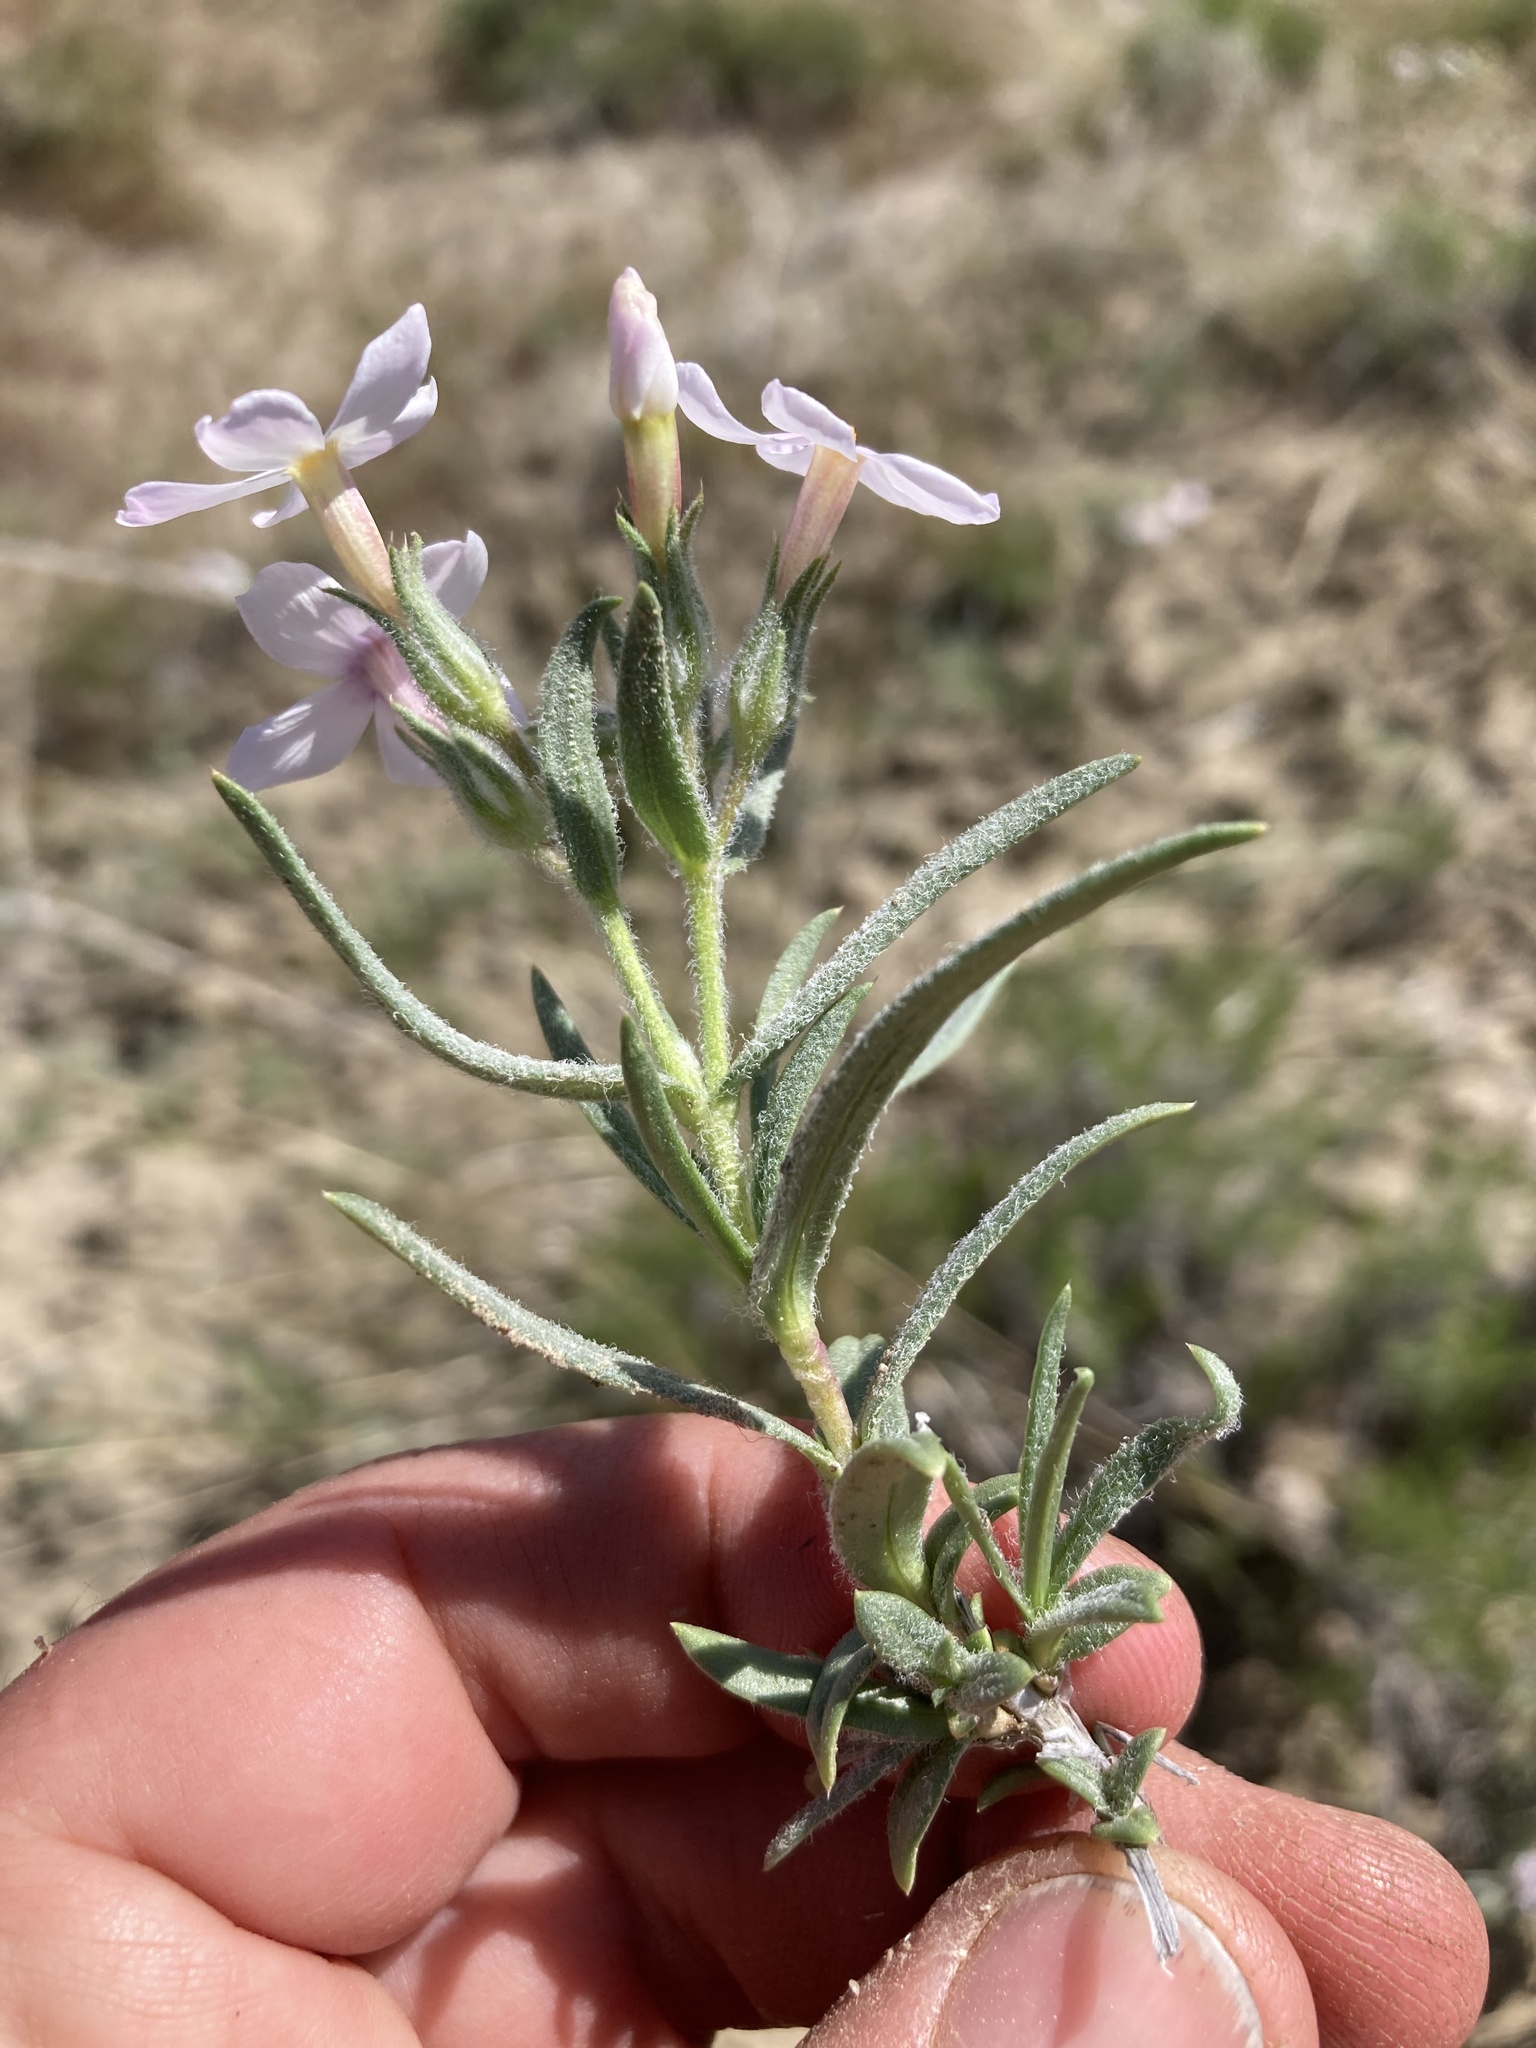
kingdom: Plantae
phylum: Tracheophyta
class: Magnoliopsida
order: Ericales
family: Polemoniaceae
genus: Phlox
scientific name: Phlox longifolia
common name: Longleaf phlox
